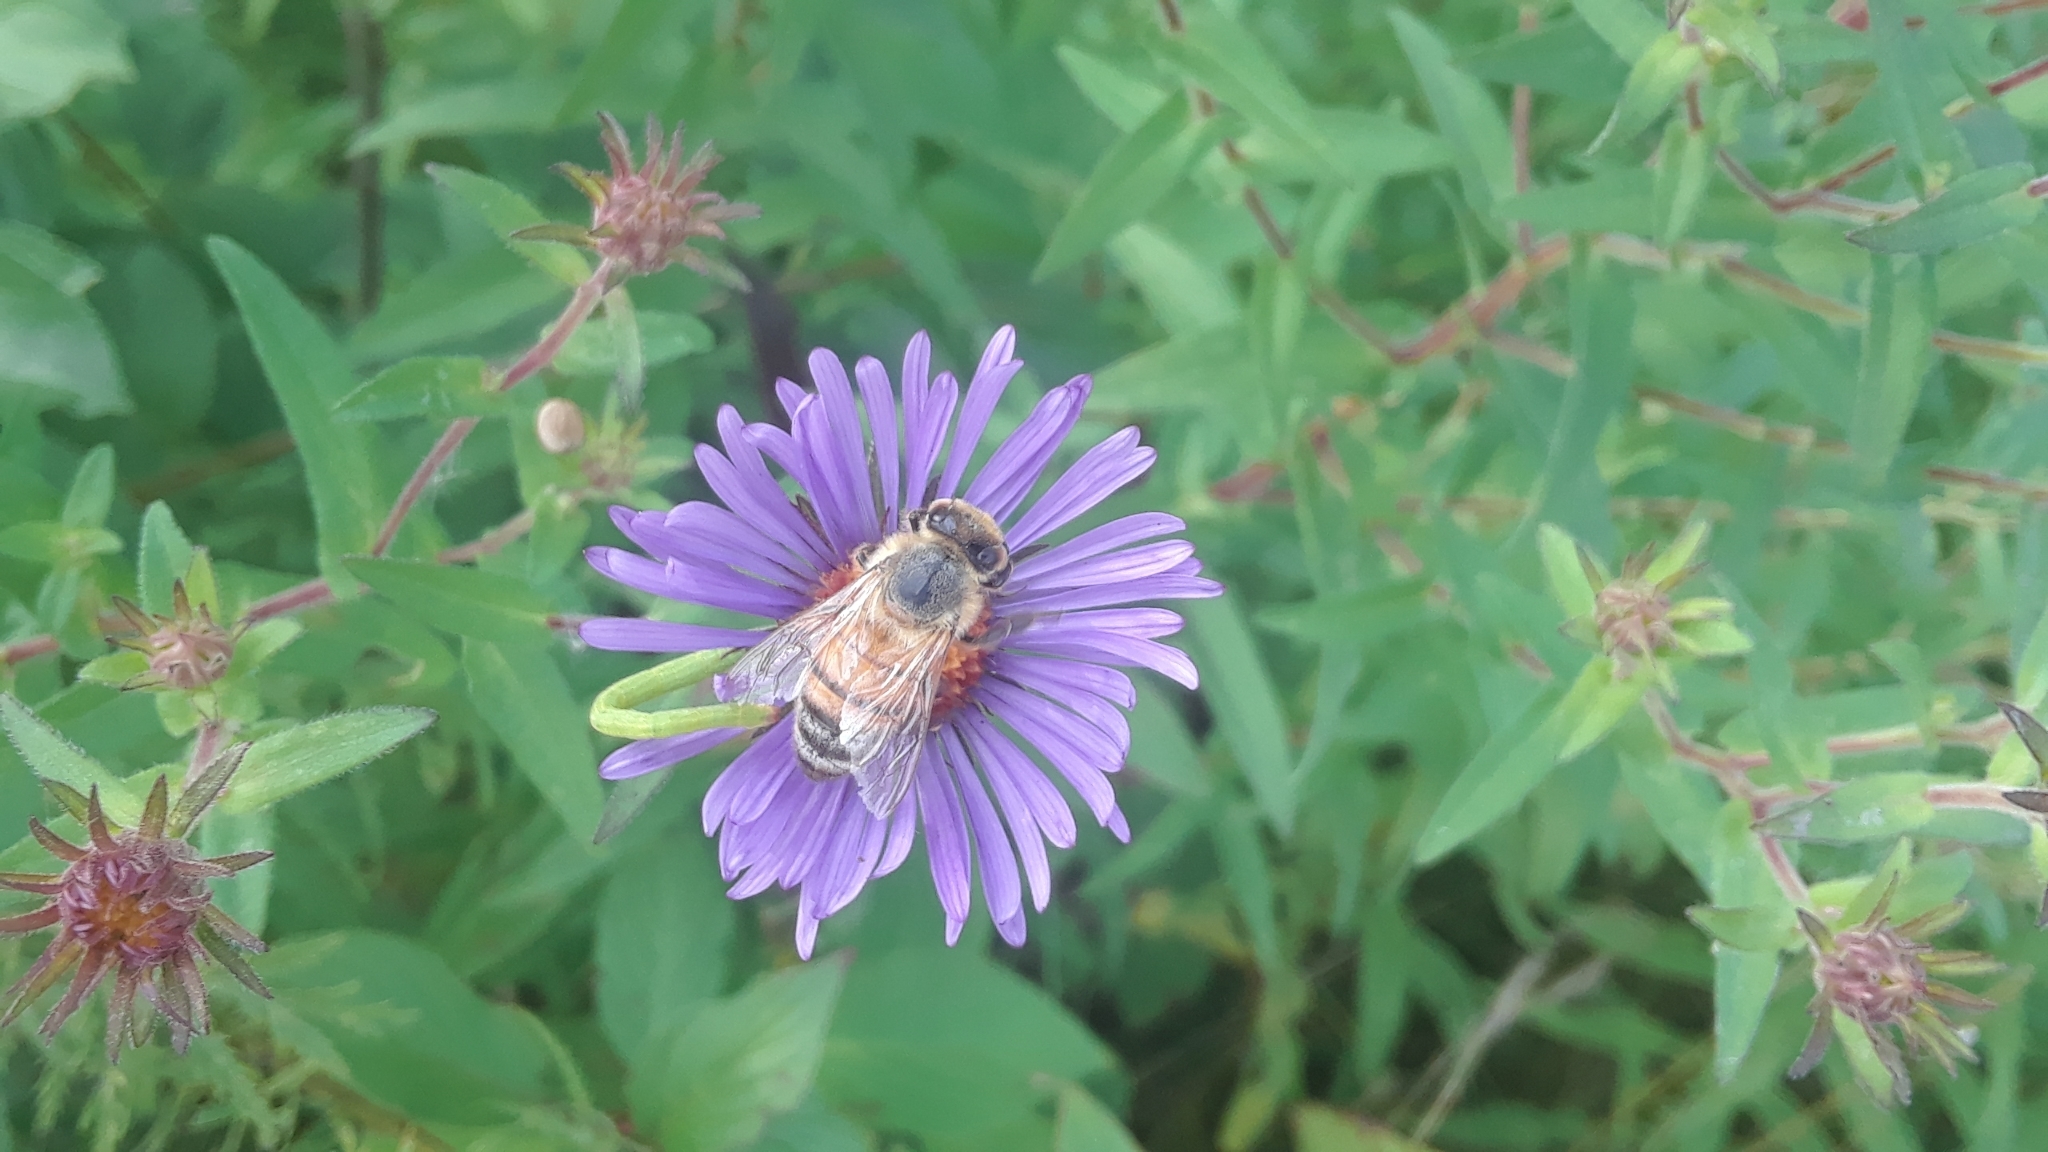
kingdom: Animalia
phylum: Arthropoda
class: Insecta
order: Hymenoptera
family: Apidae
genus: Apis
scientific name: Apis mellifera
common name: Honey bee
